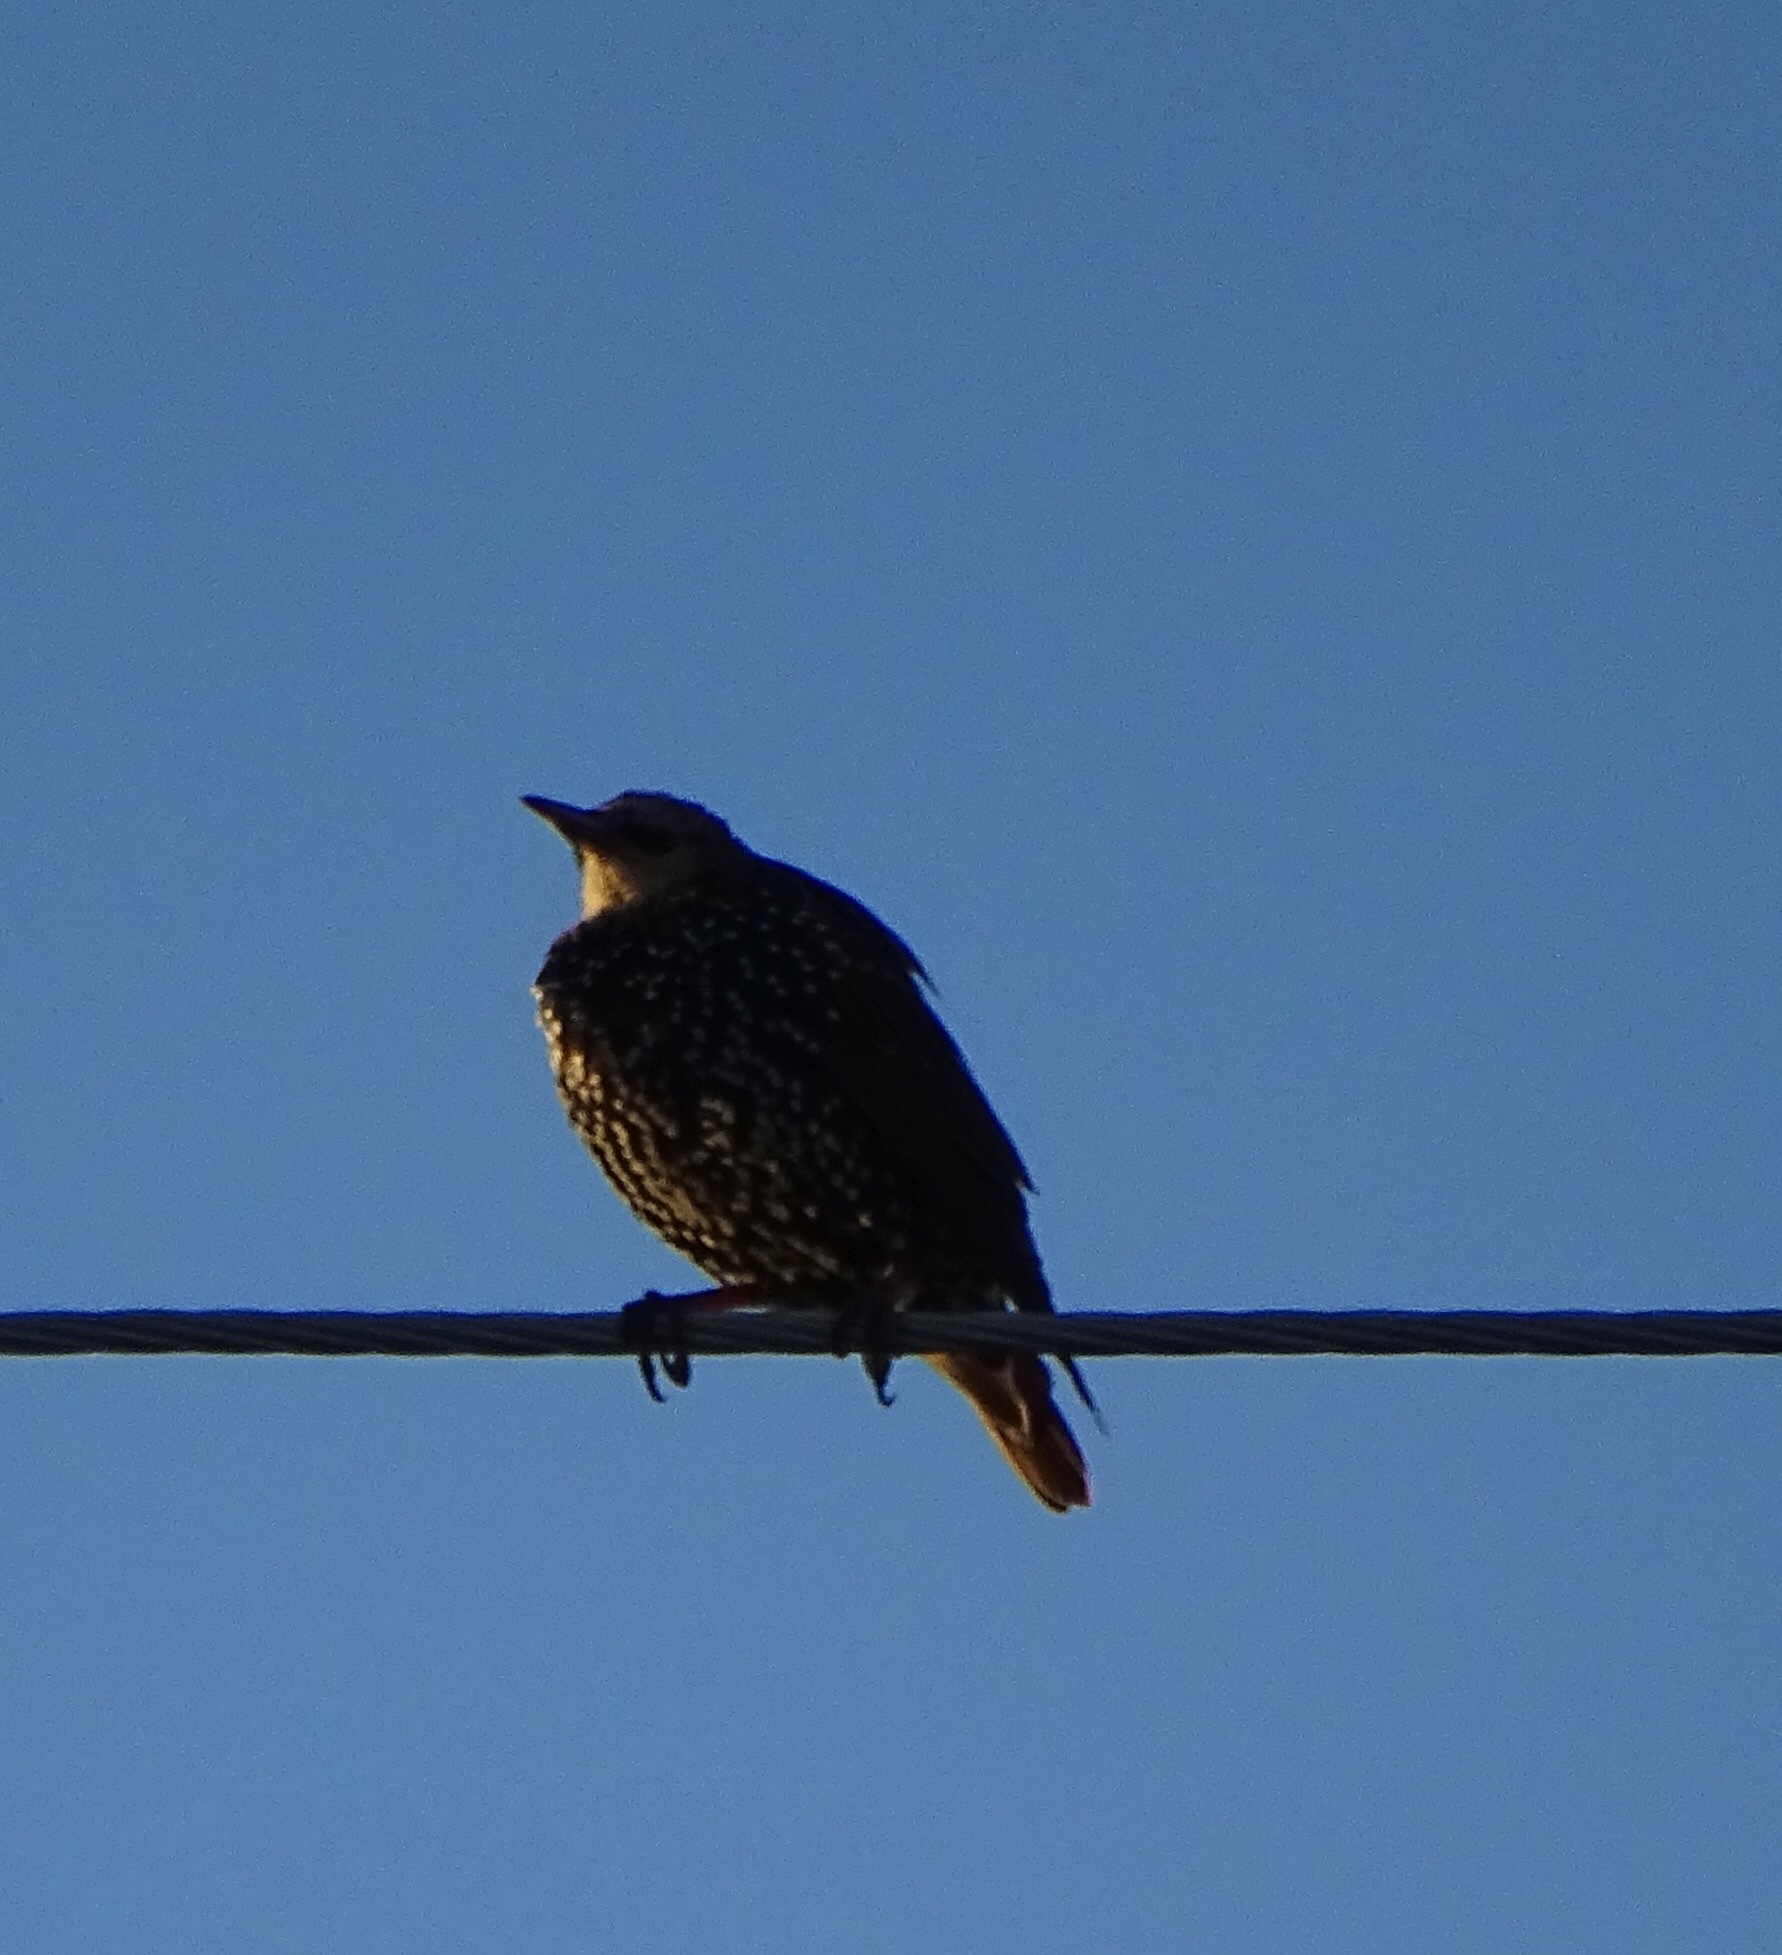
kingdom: Animalia
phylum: Chordata
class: Aves
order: Passeriformes
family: Sturnidae
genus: Sturnus
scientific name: Sturnus vulgaris
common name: Common starling
